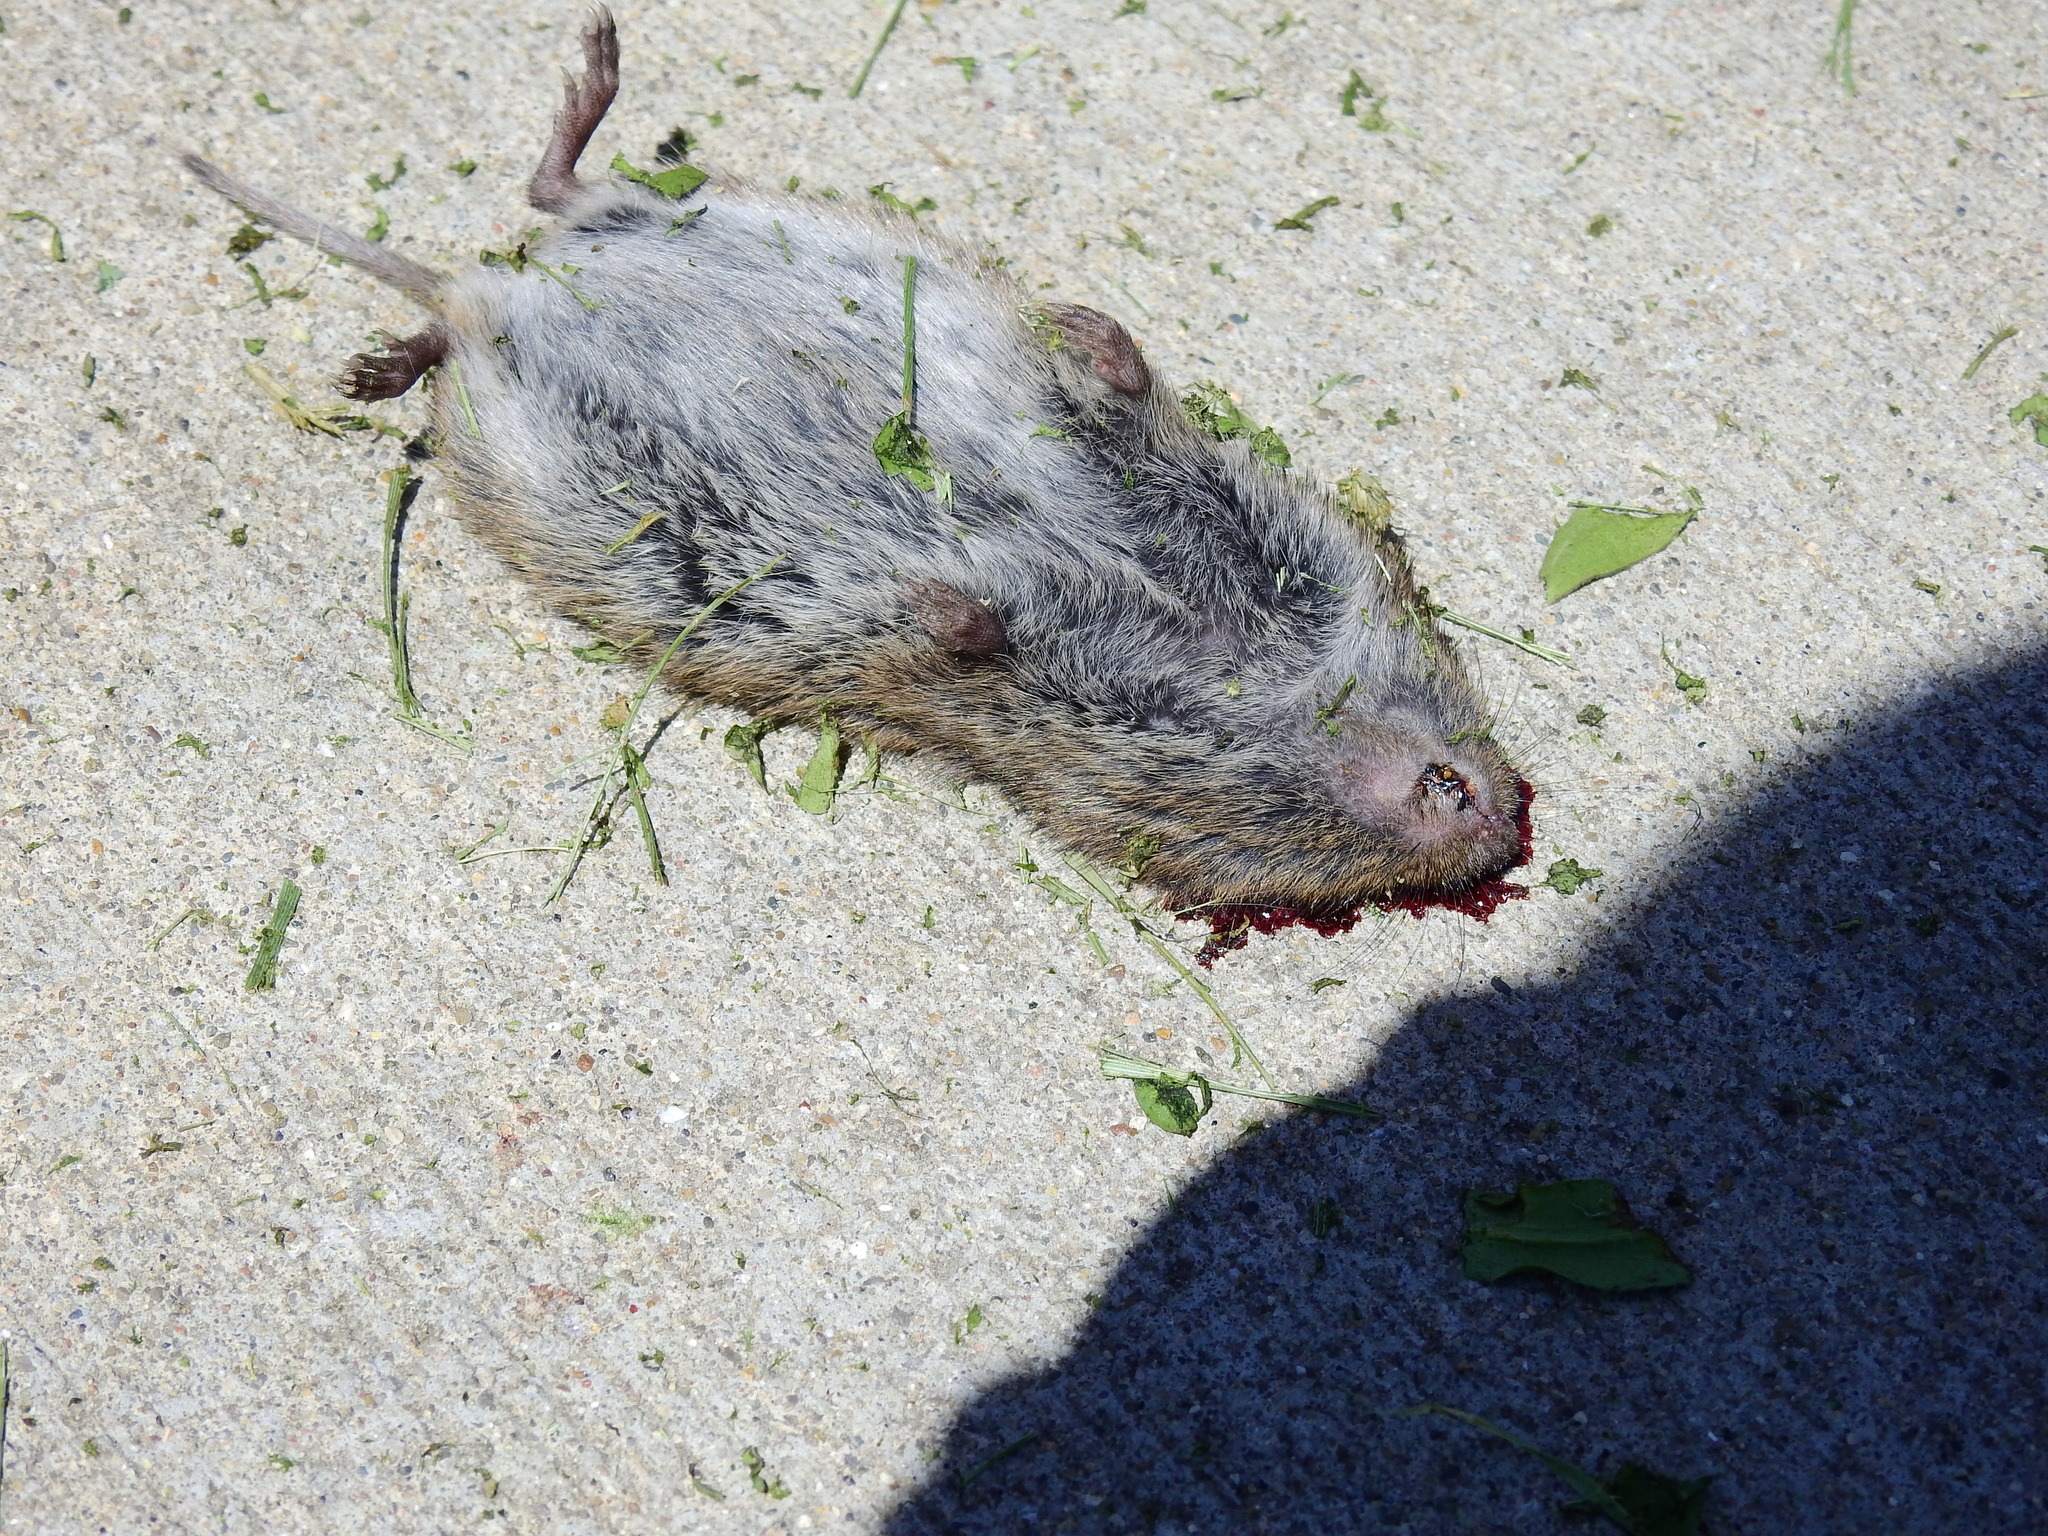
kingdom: Animalia
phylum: Chordata
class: Mammalia
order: Rodentia
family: Cricetidae
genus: Microtus
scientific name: Microtus pennsylvanicus
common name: Meadow vole
